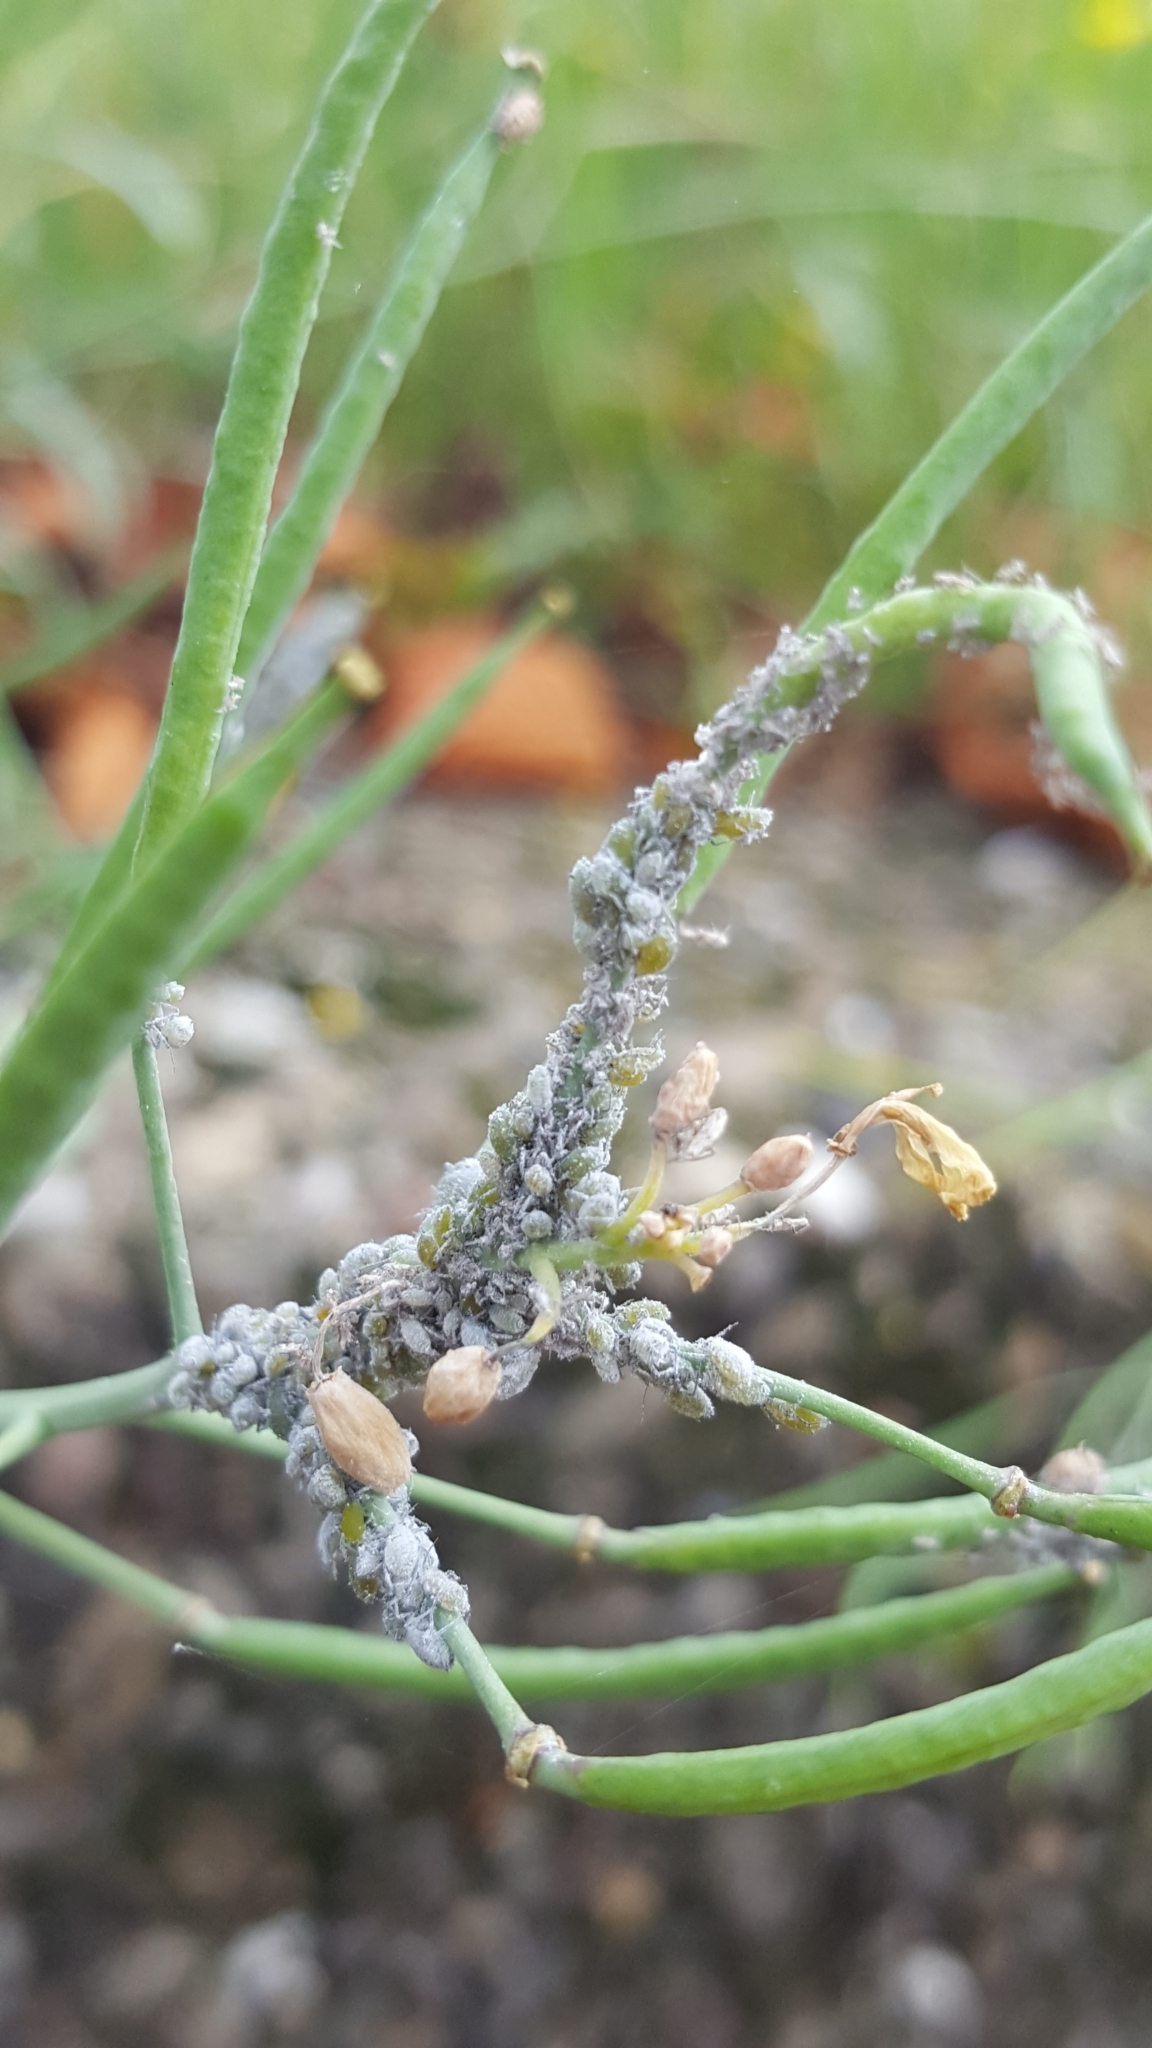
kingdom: Animalia
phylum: Arthropoda
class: Insecta
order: Hemiptera
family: Aphididae
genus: Brevicoryne
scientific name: Brevicoryne brassicae
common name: Cabbage aphid
